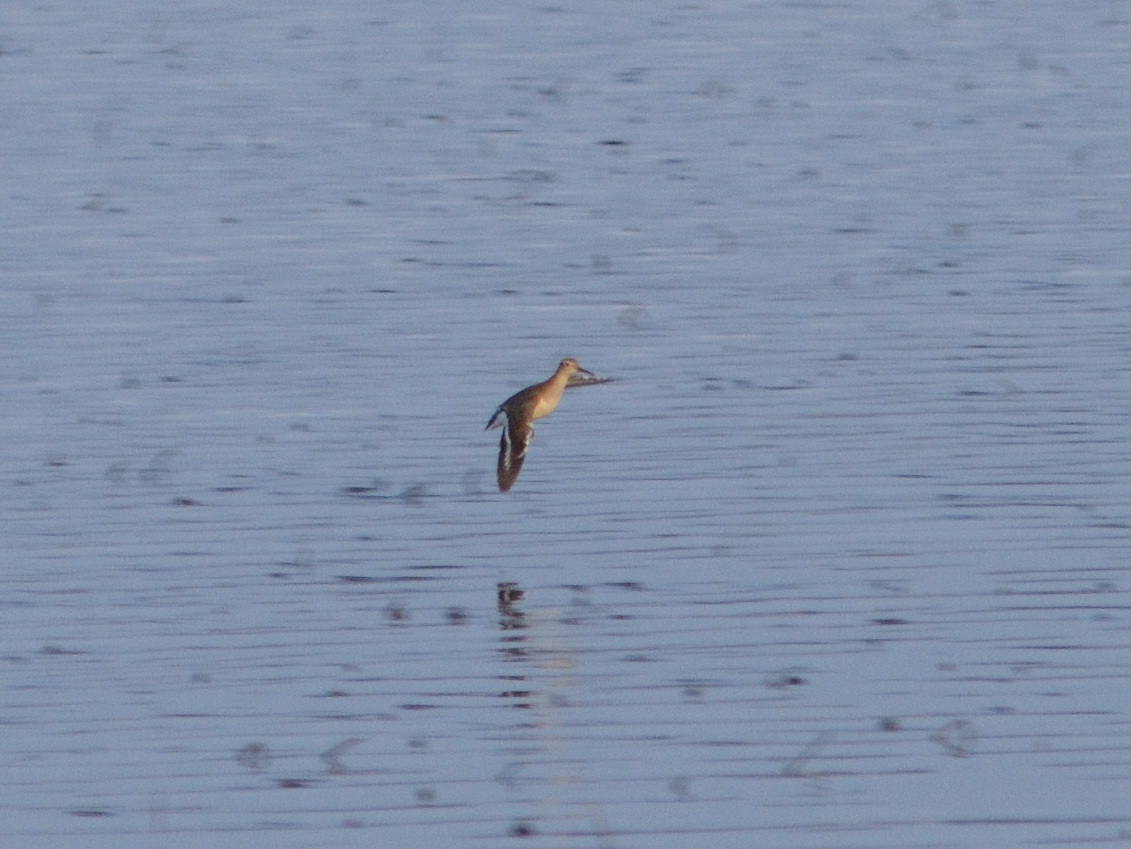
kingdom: Animalia
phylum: Chordata
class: Aves
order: Charadriiformes
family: Scolopacidae
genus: Actitis
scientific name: Actitis hypoleucos
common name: Common sandpiper
